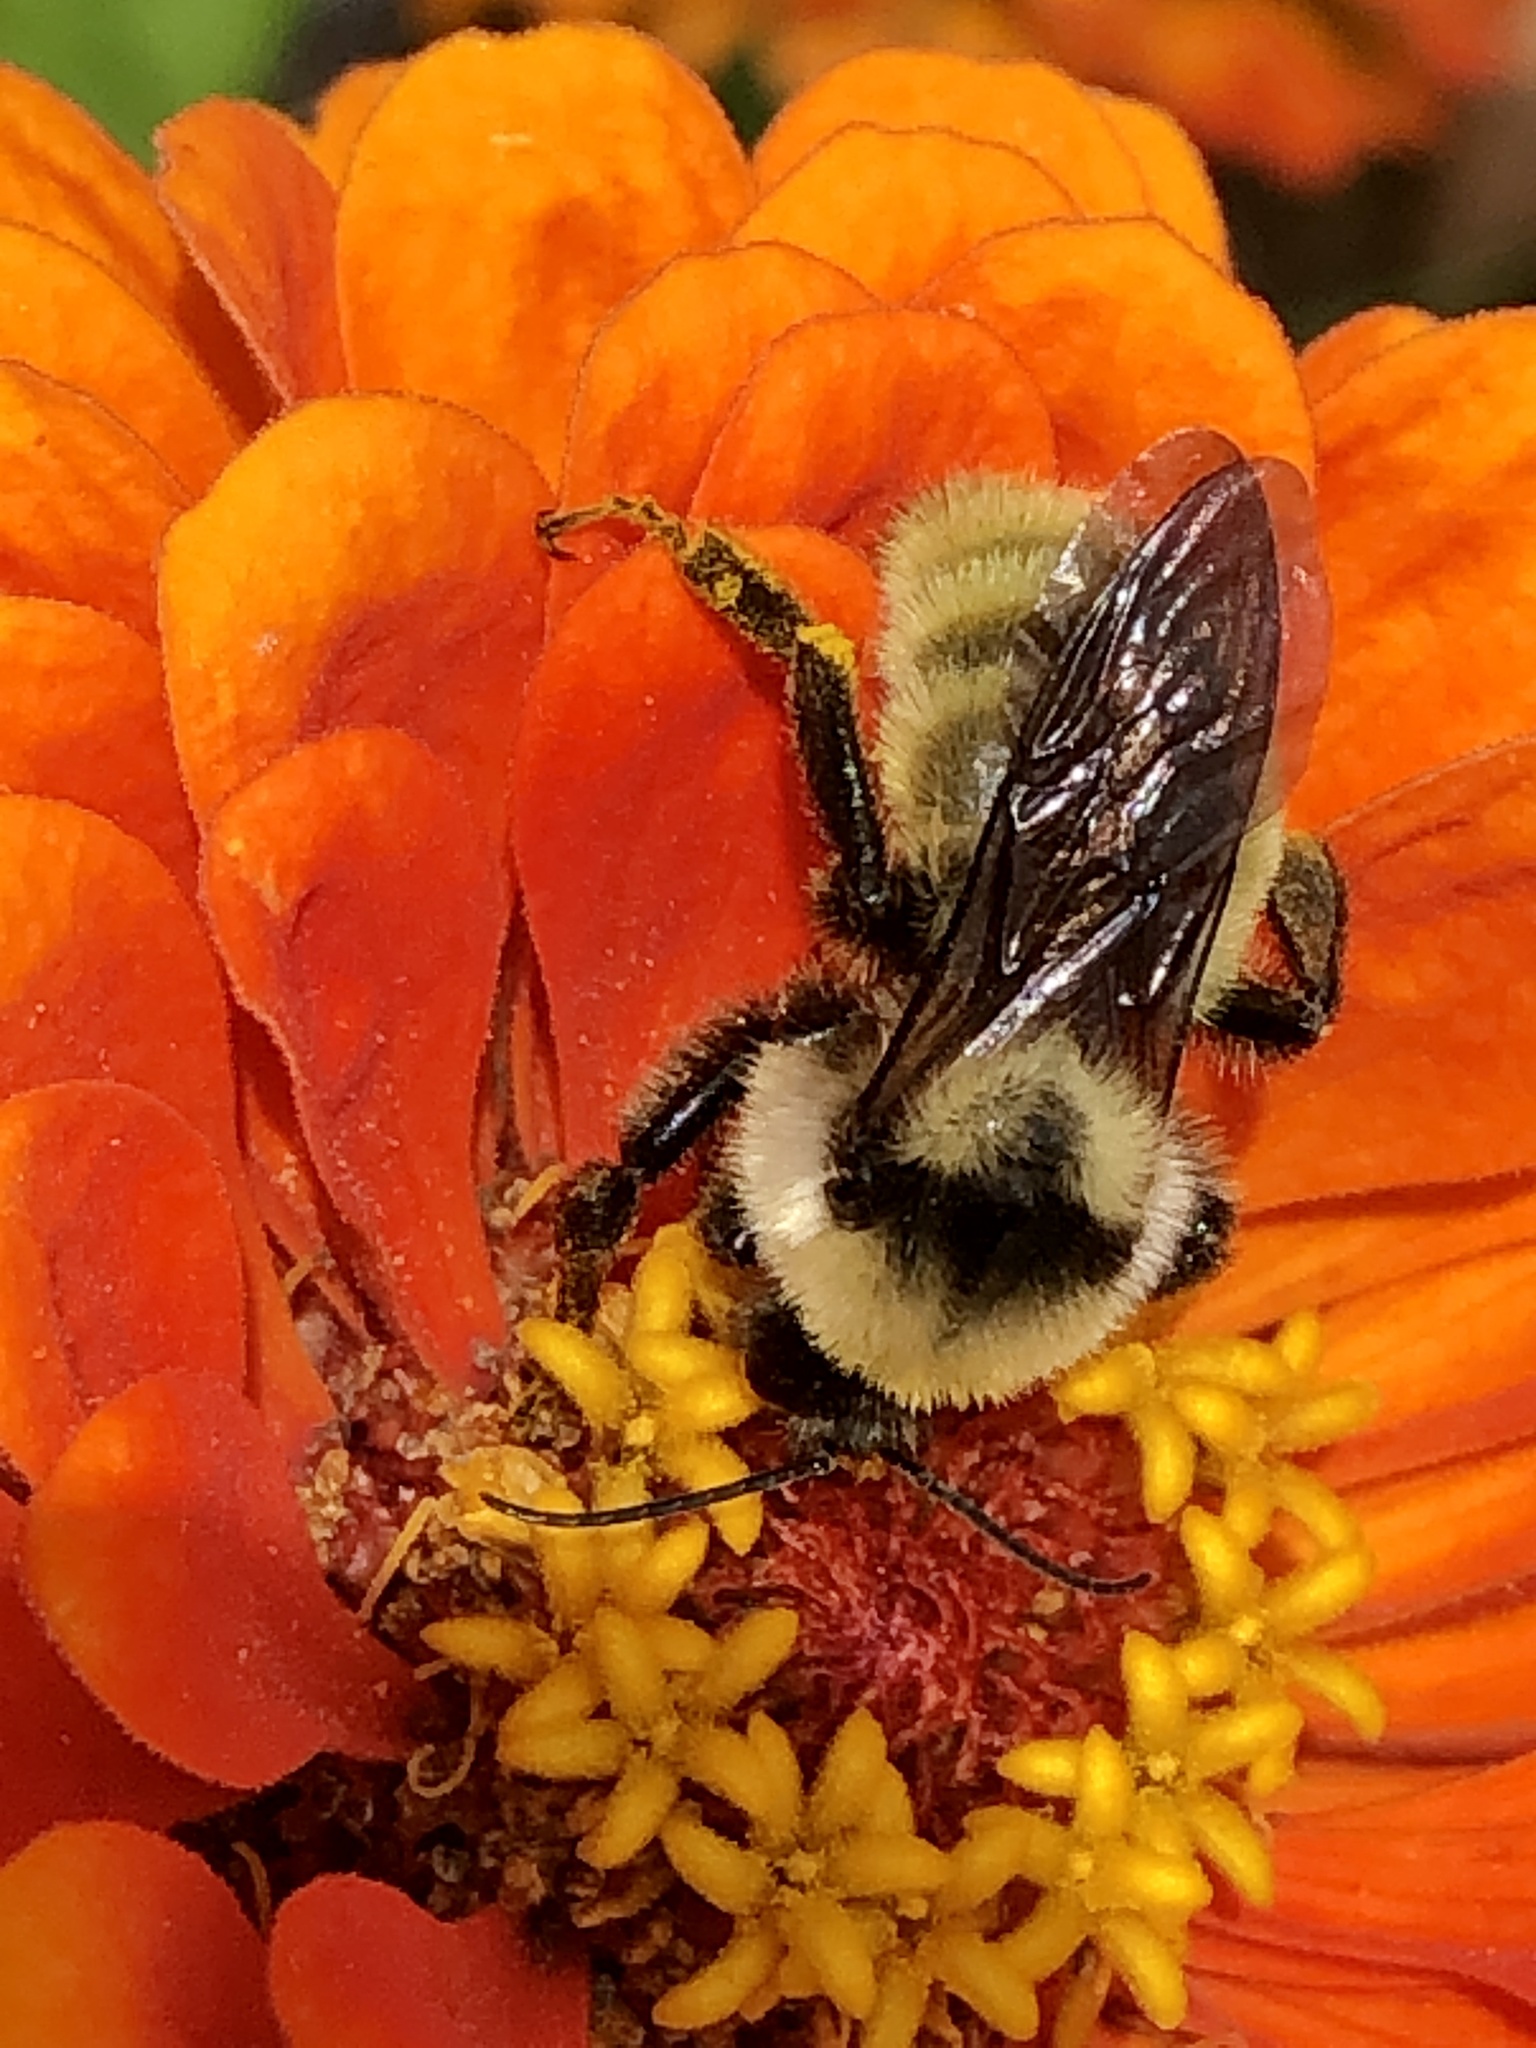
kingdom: Animalia
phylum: Arthropoda
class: Insecta
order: Hymenoptera
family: Apidae
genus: Bombus
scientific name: Bombus fervidus
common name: Yellow bumble bee
